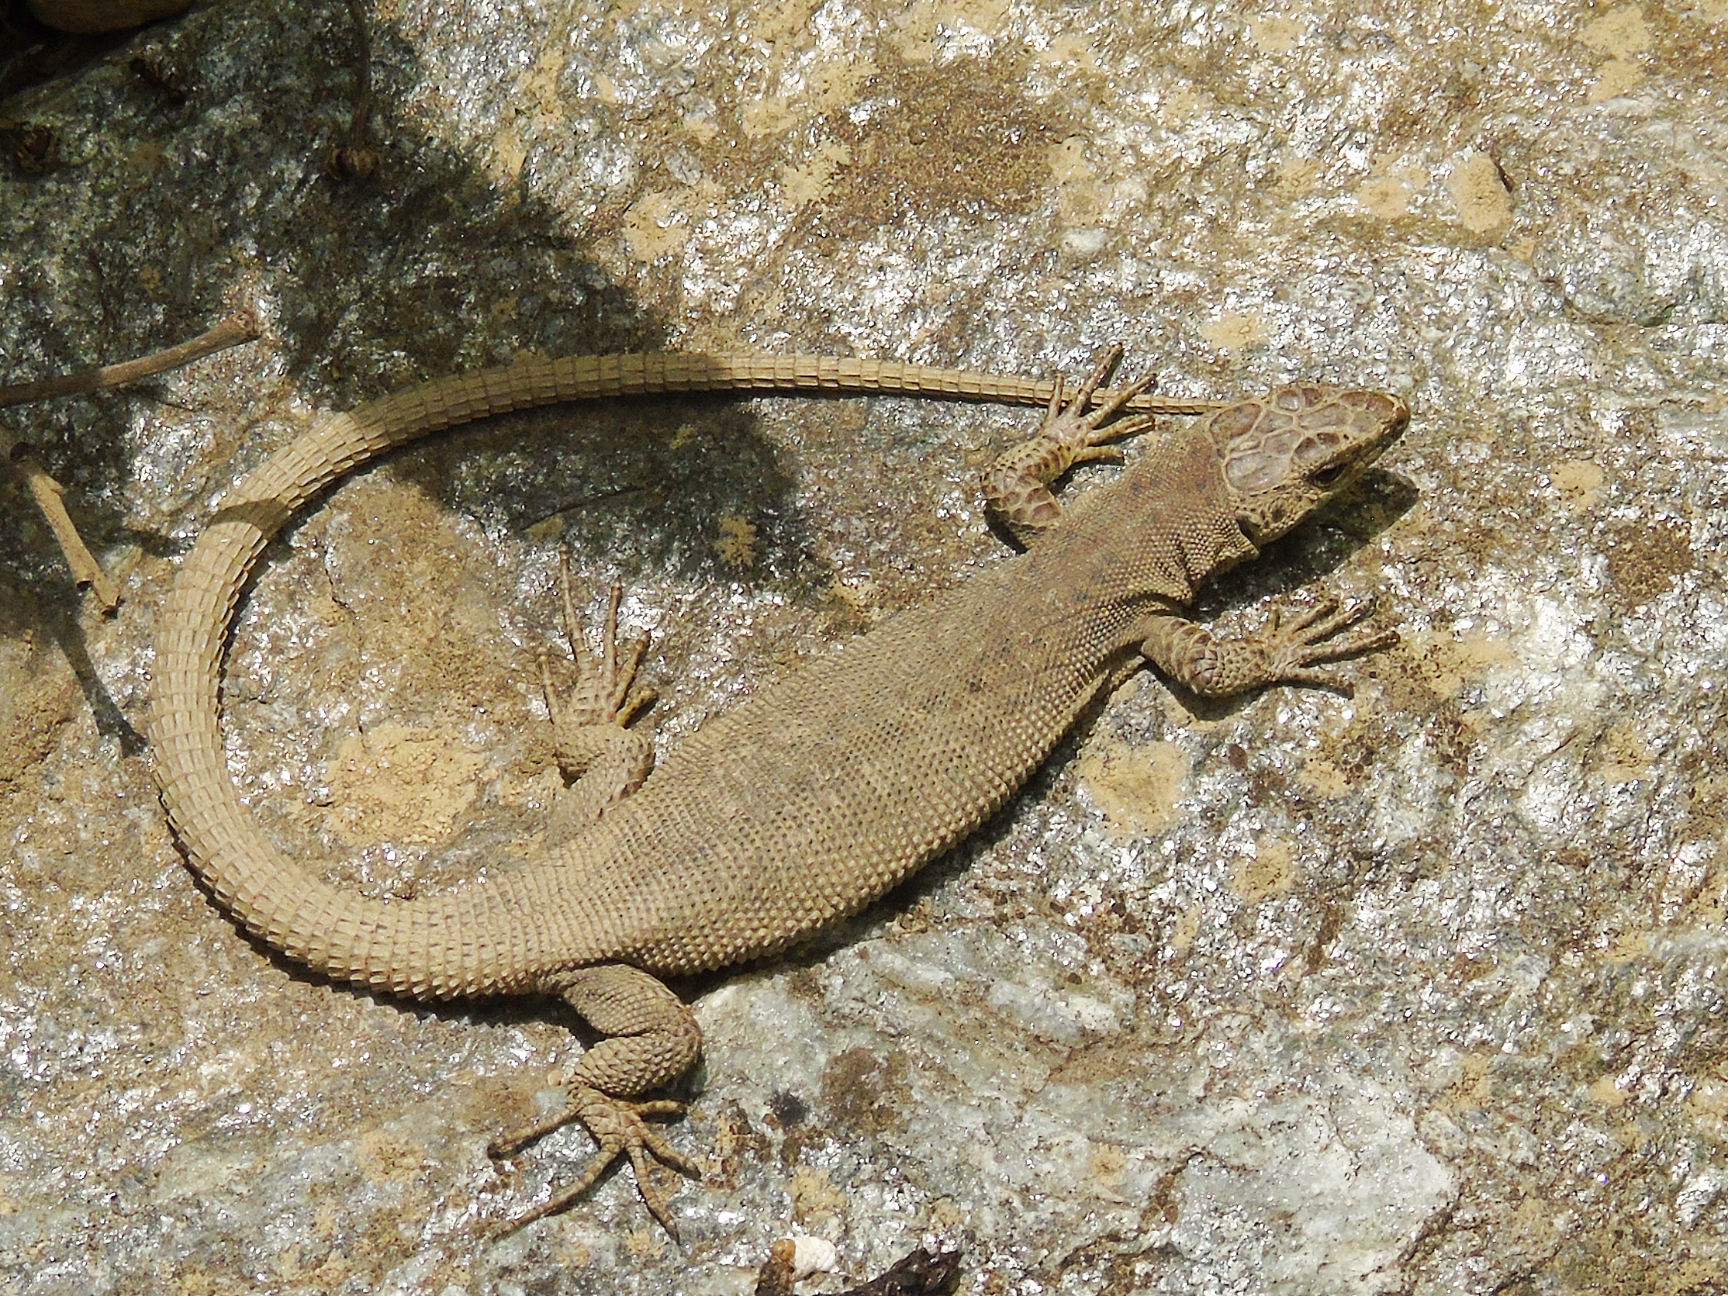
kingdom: Animalia
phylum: Chordata
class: Squamata
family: Lacertidae
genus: Darevskia
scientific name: Darevskia rudis
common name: Spiny-tailed lizard
